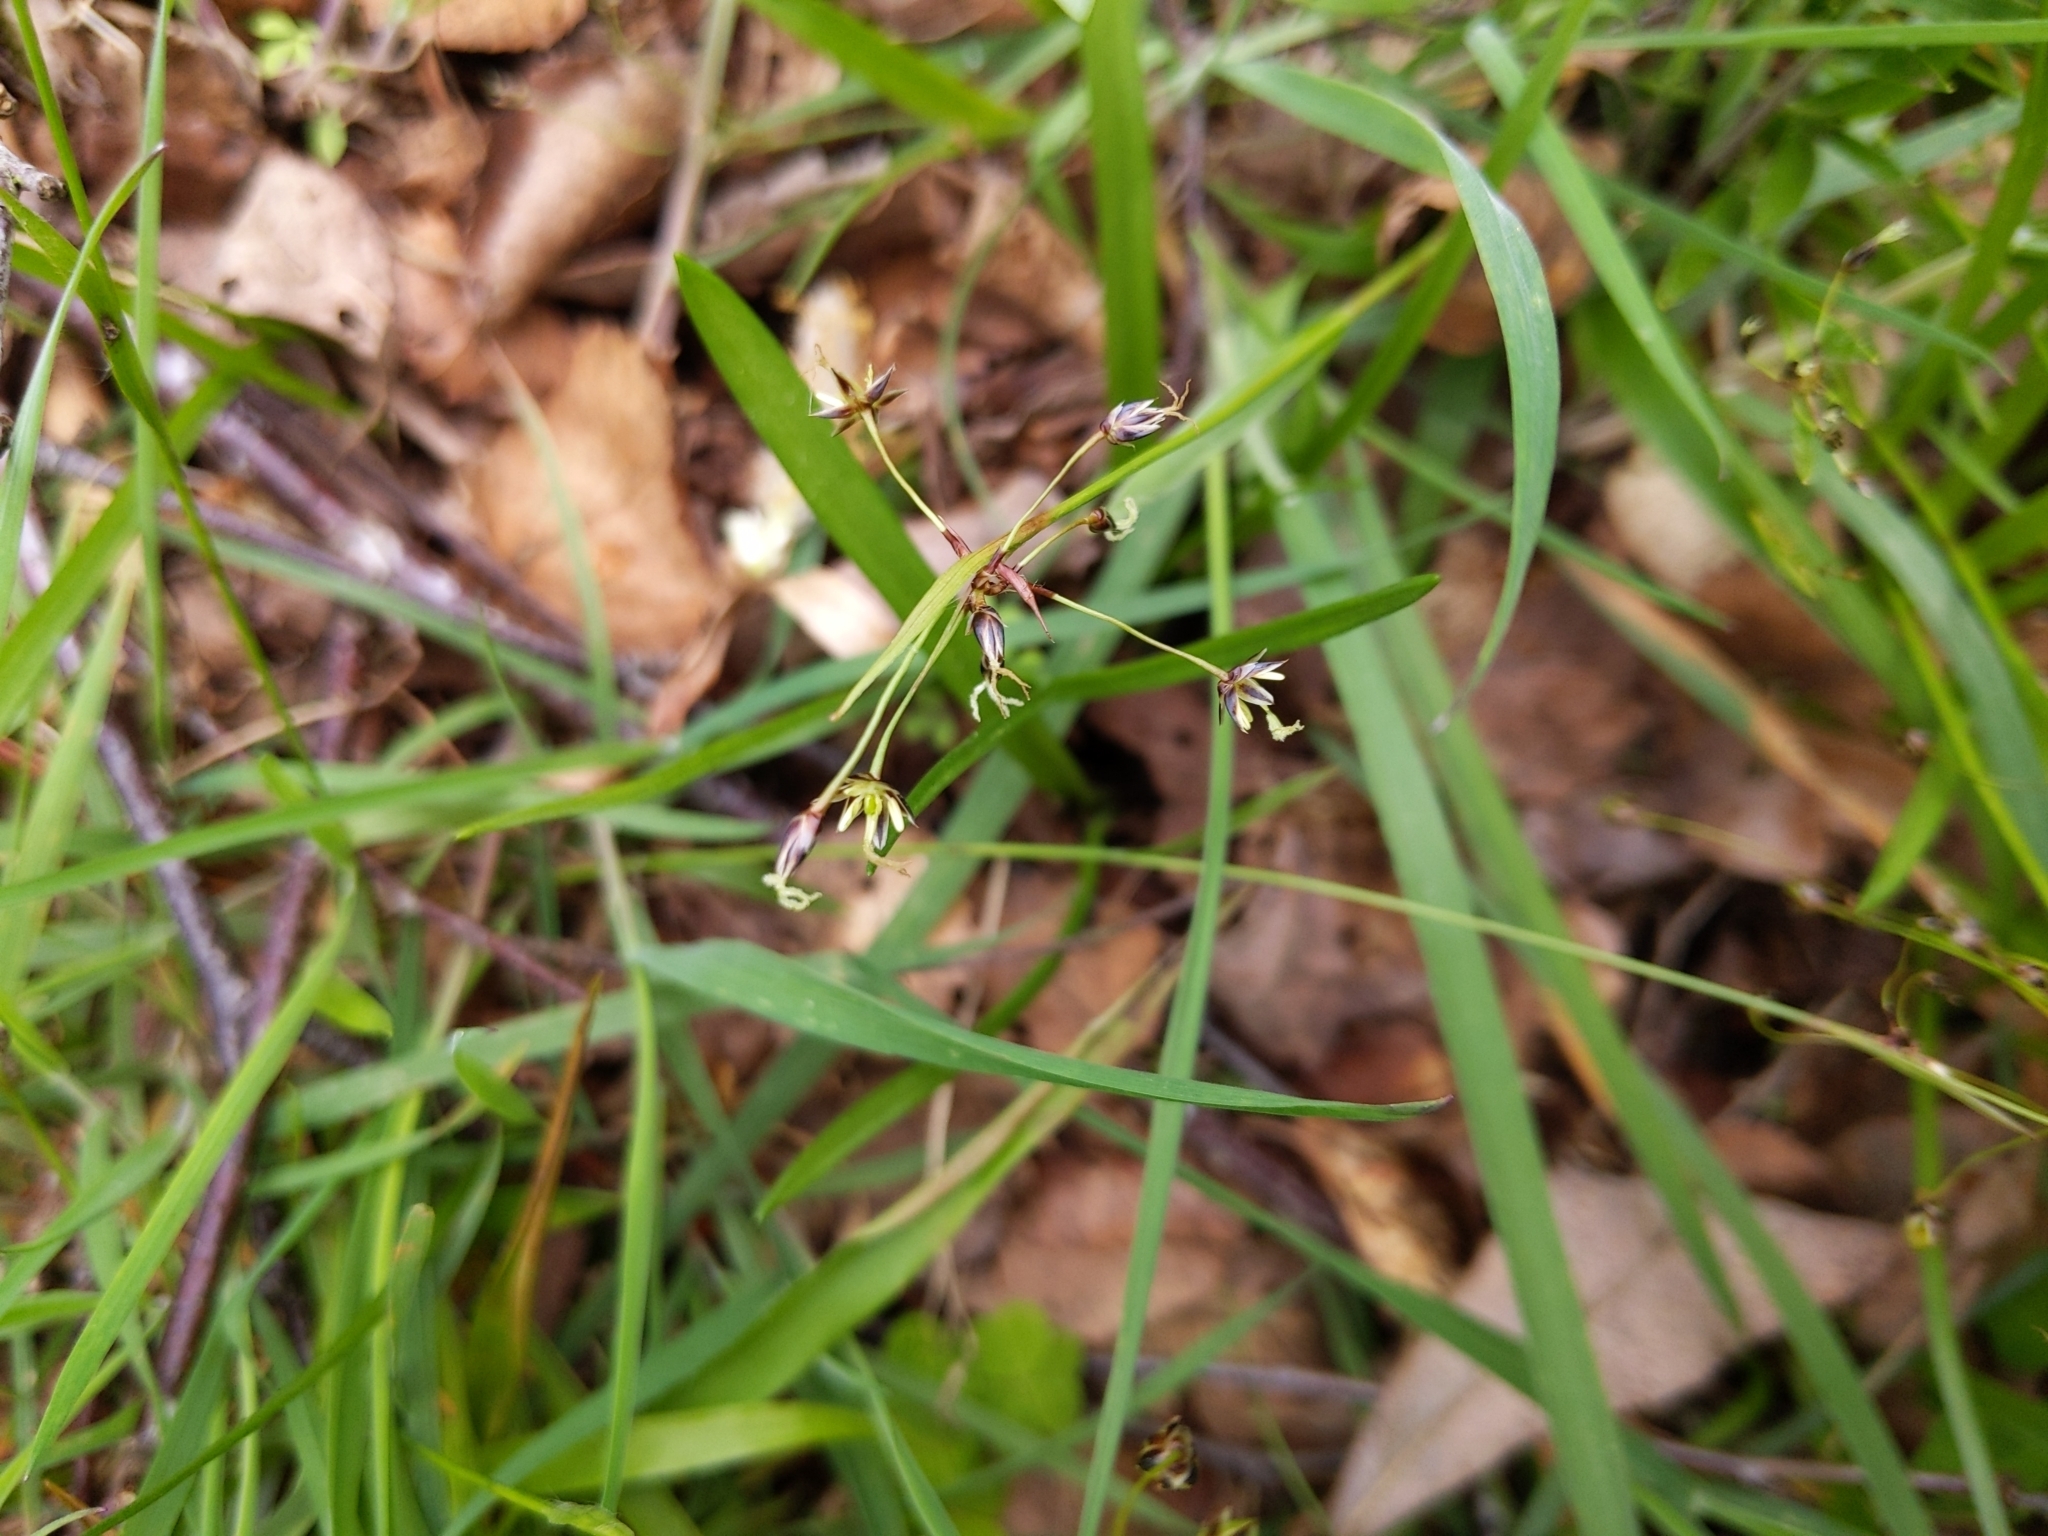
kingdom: Plantae
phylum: Tracheophyta
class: Liliopsida
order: Poales
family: Juncaceae
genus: Luzula
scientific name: Luzula pilosa
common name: Hairy wood-rush
